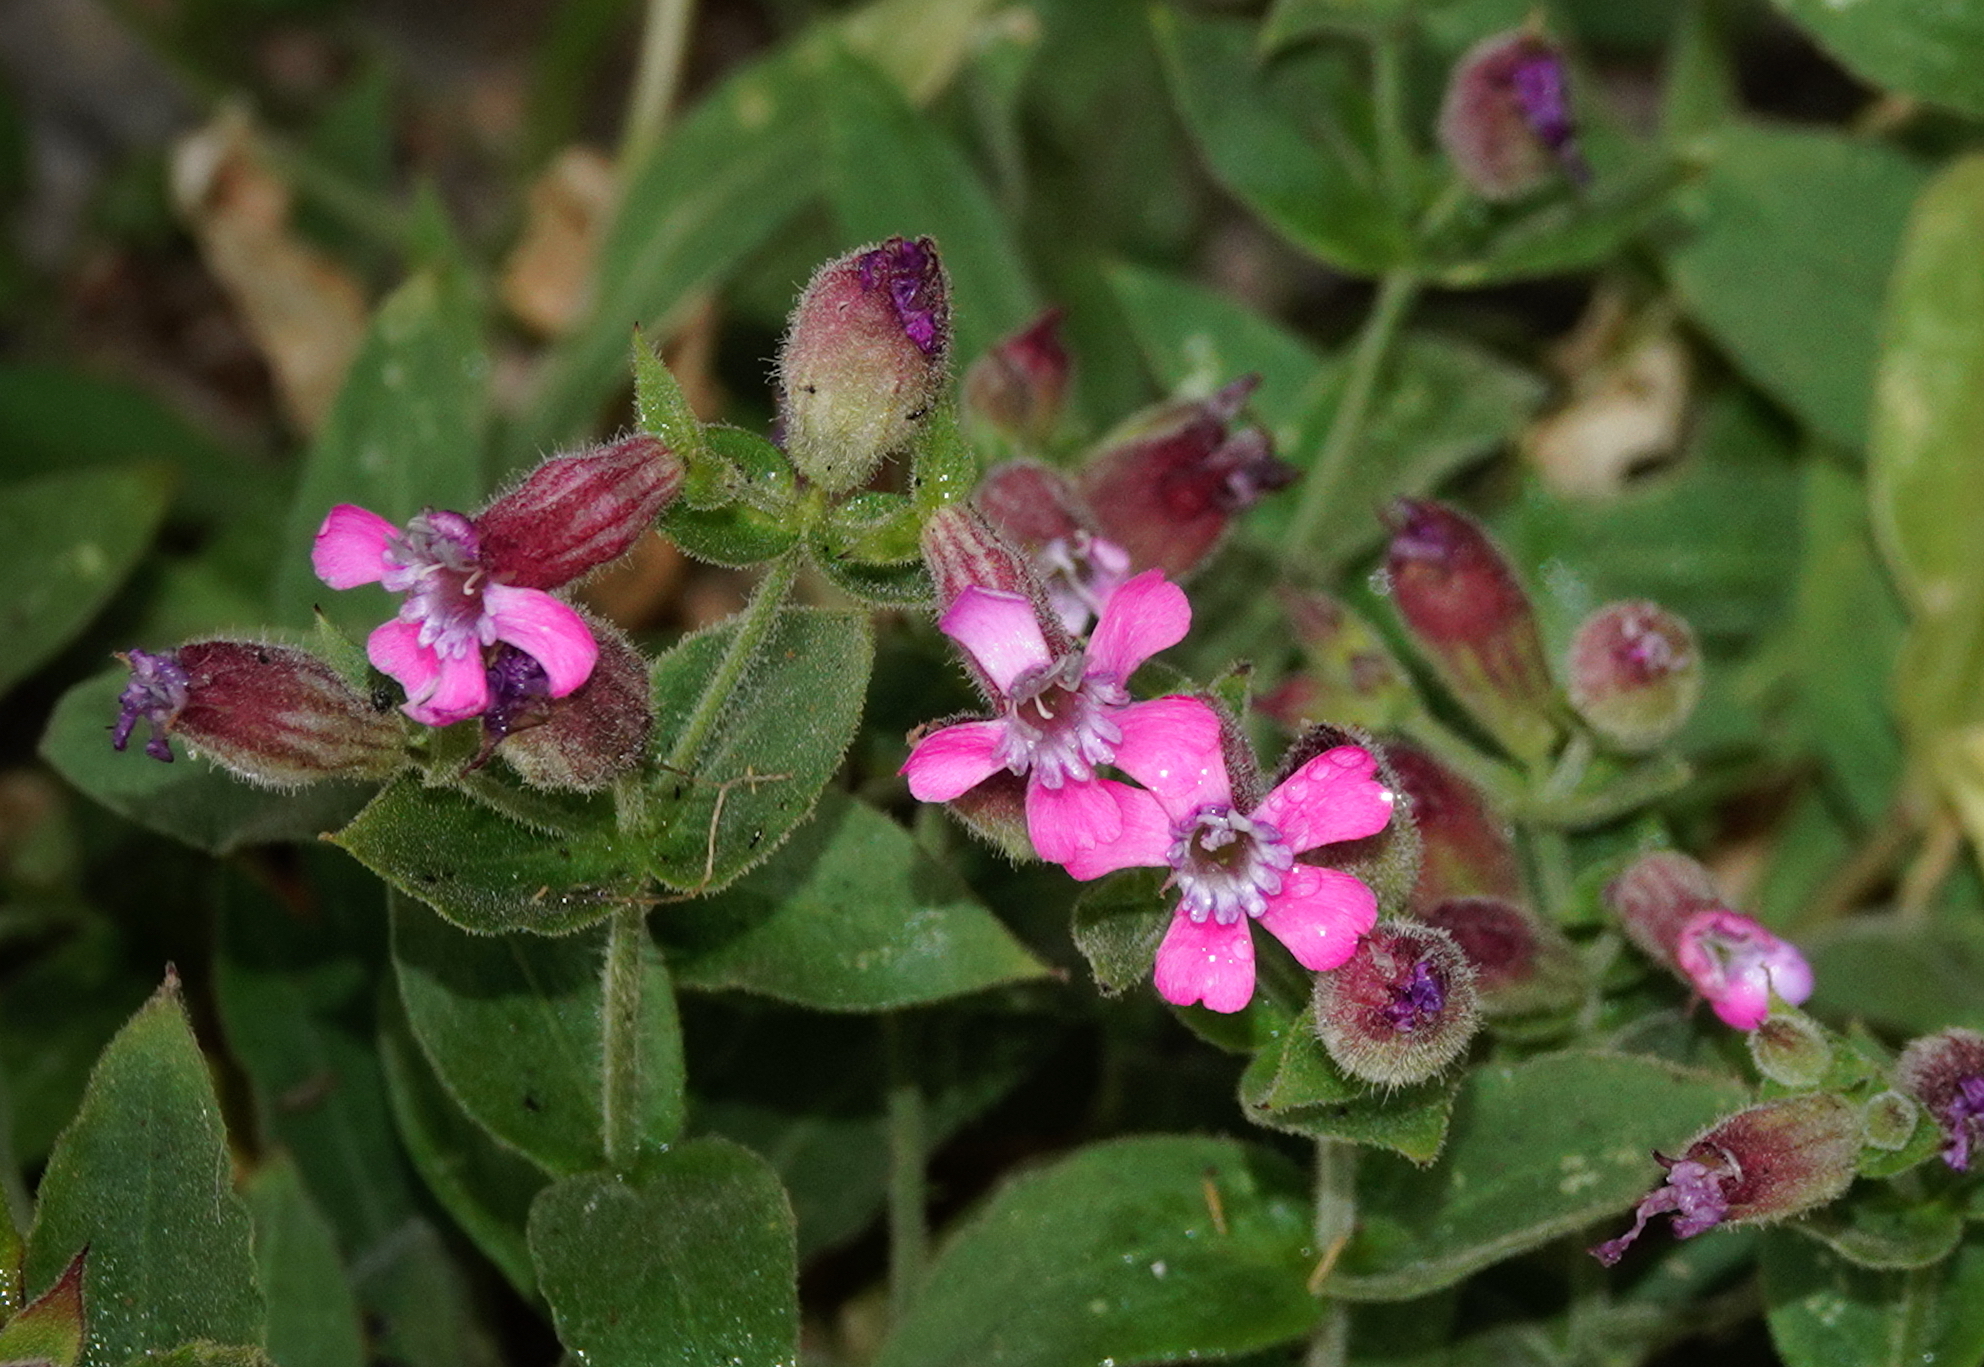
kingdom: Plantae
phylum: Tracheophyta
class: Magnoliopsida
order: Caryophyllales
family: Caryophyllaceae
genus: Silene
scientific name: Silene acutifolia
